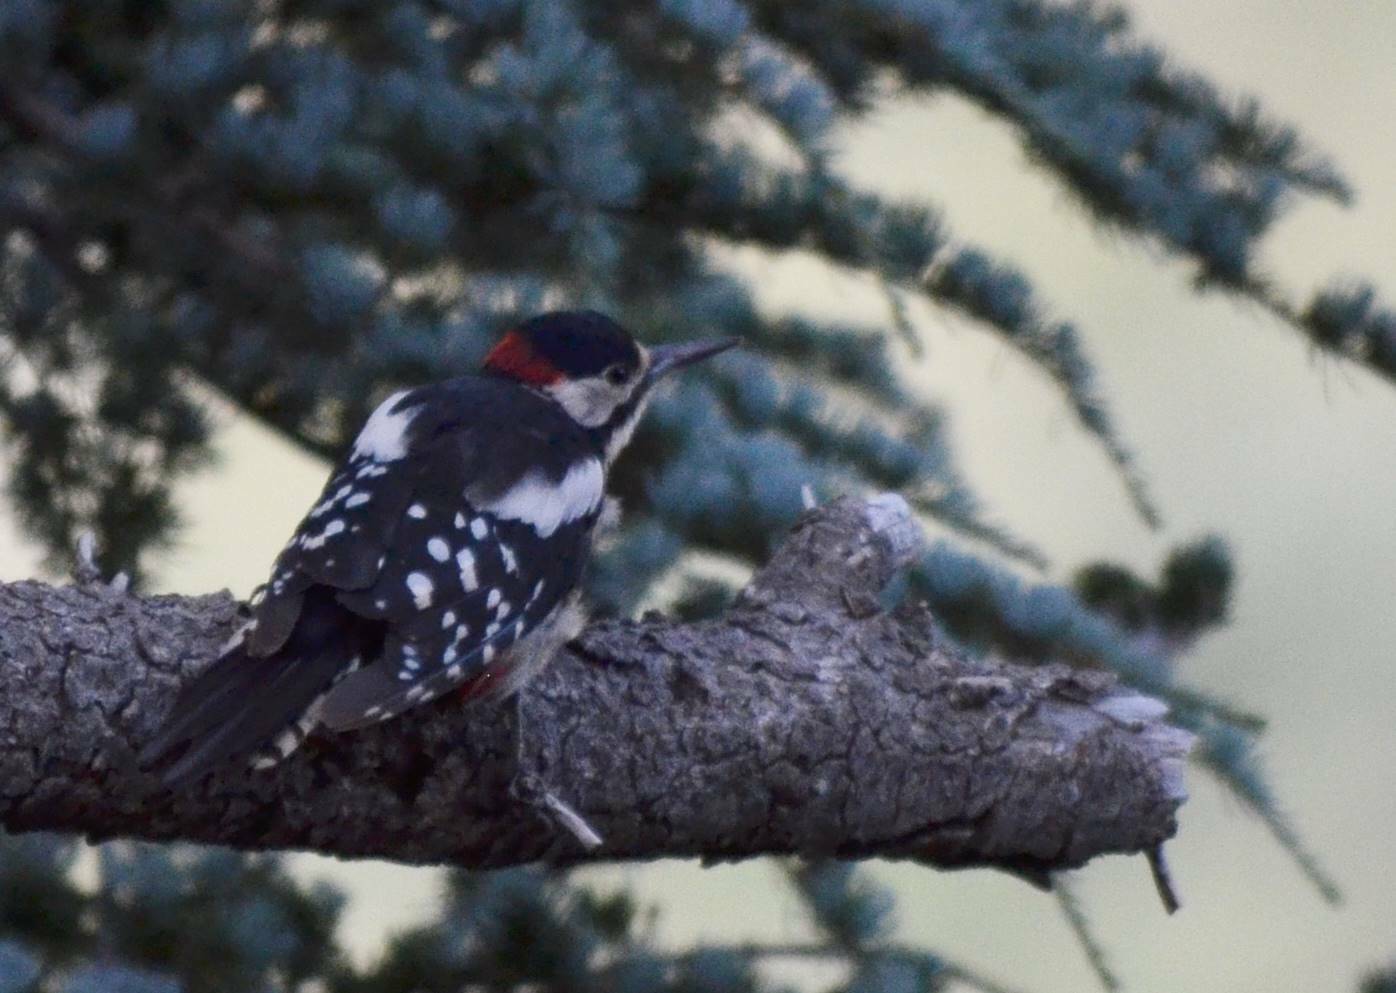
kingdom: Animalia
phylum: Chordata
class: Aves
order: Piciformes
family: Picidae
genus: Dendrocopos
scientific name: Dendrocopos major
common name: Great spotted woodpecker
